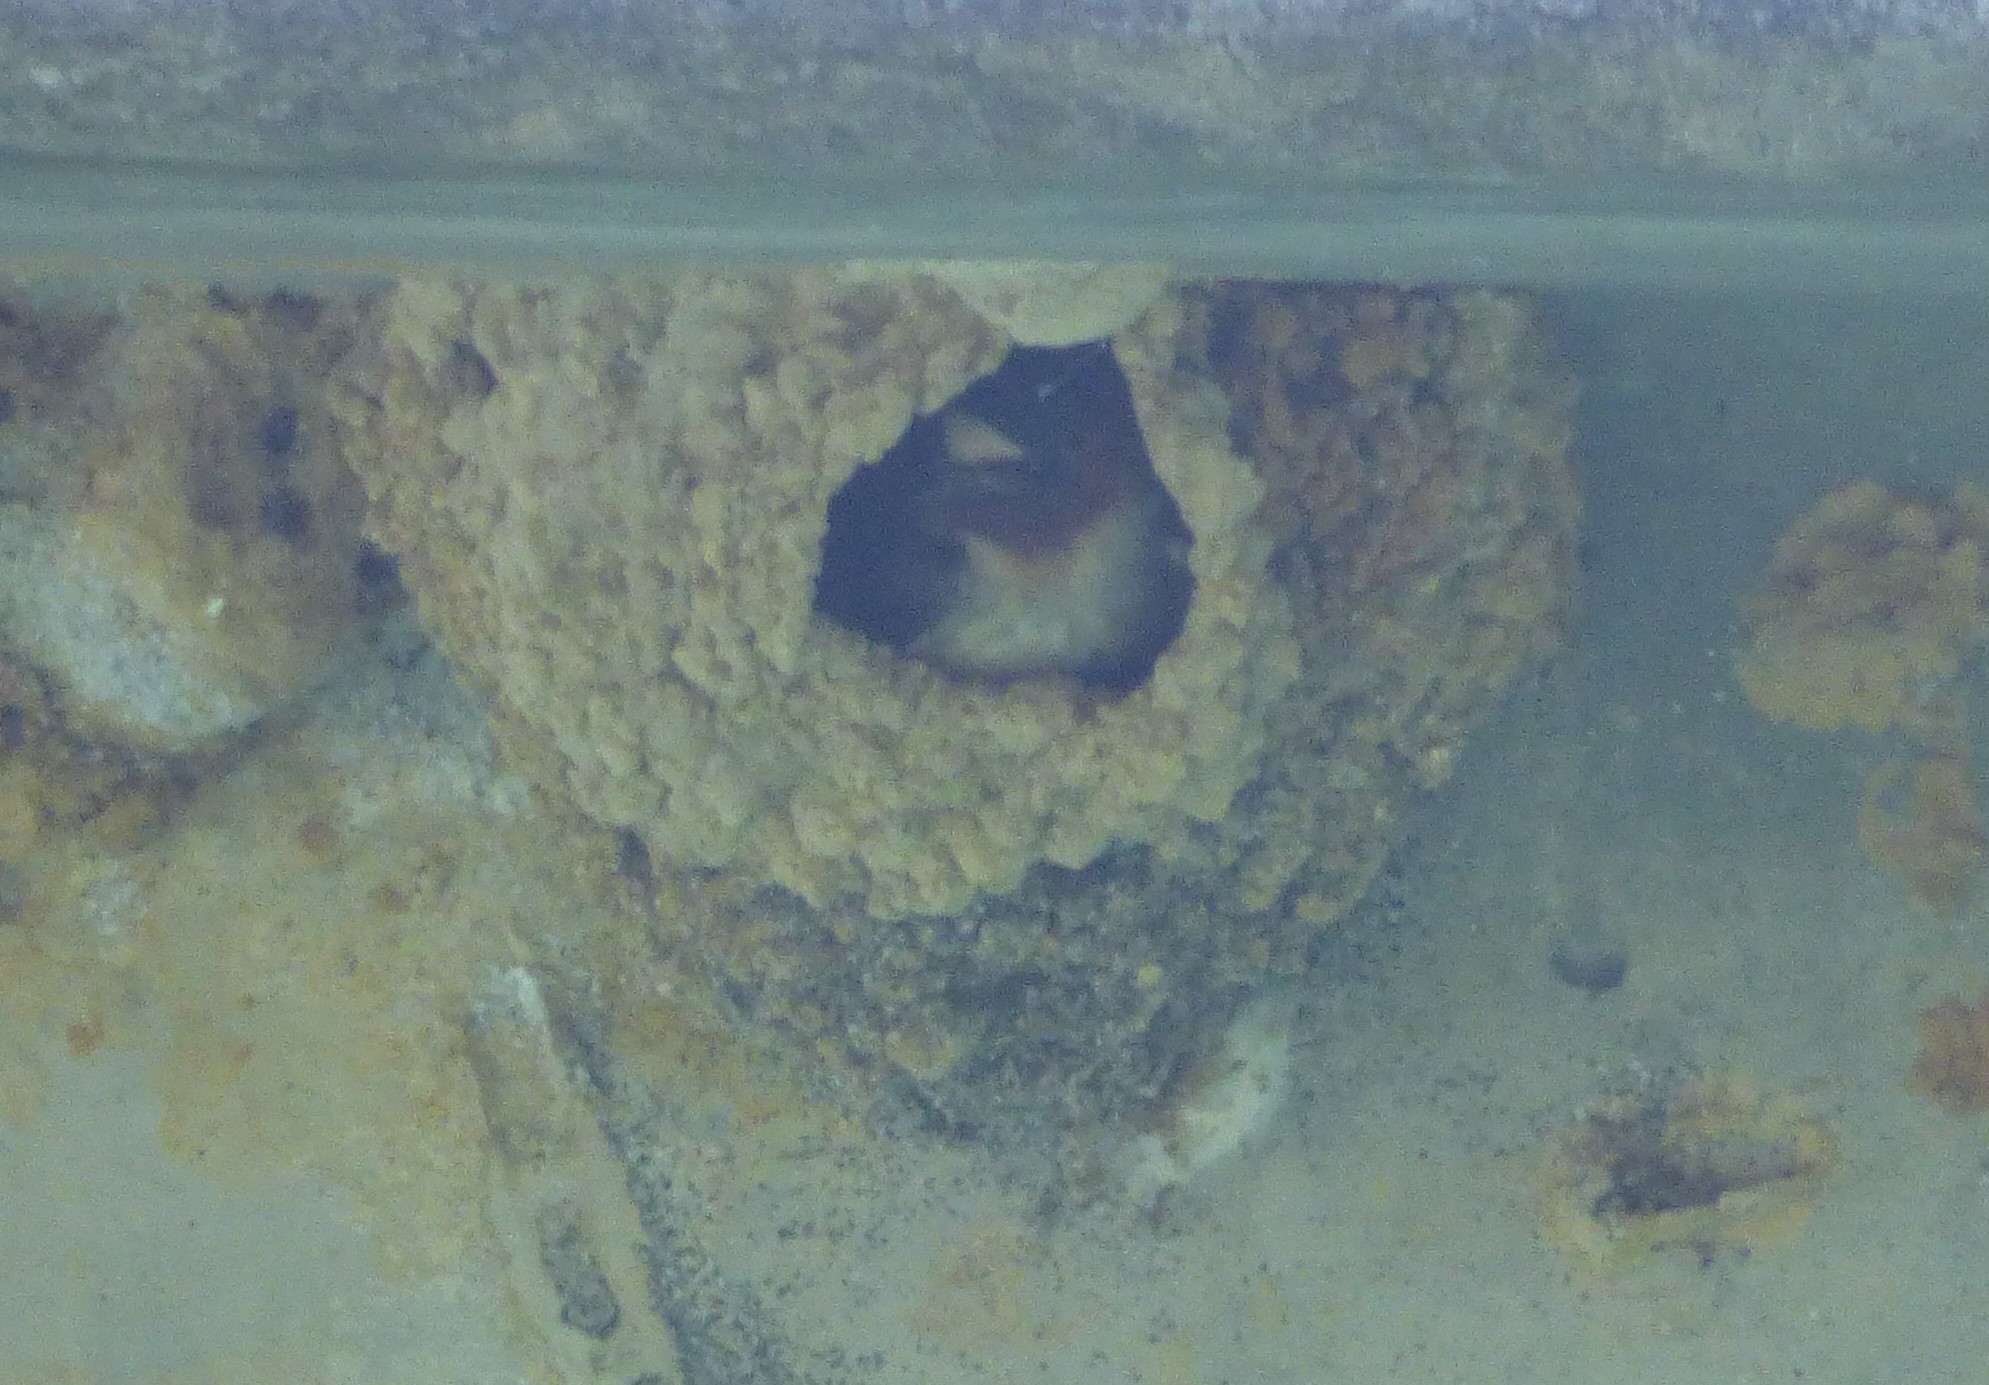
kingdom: Animalia
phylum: Chordata
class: Aves
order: Passeriformes
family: Hirundinidae
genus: Petrochelidon
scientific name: Petrochelidon pyrrhonota
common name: American cliff swallow
